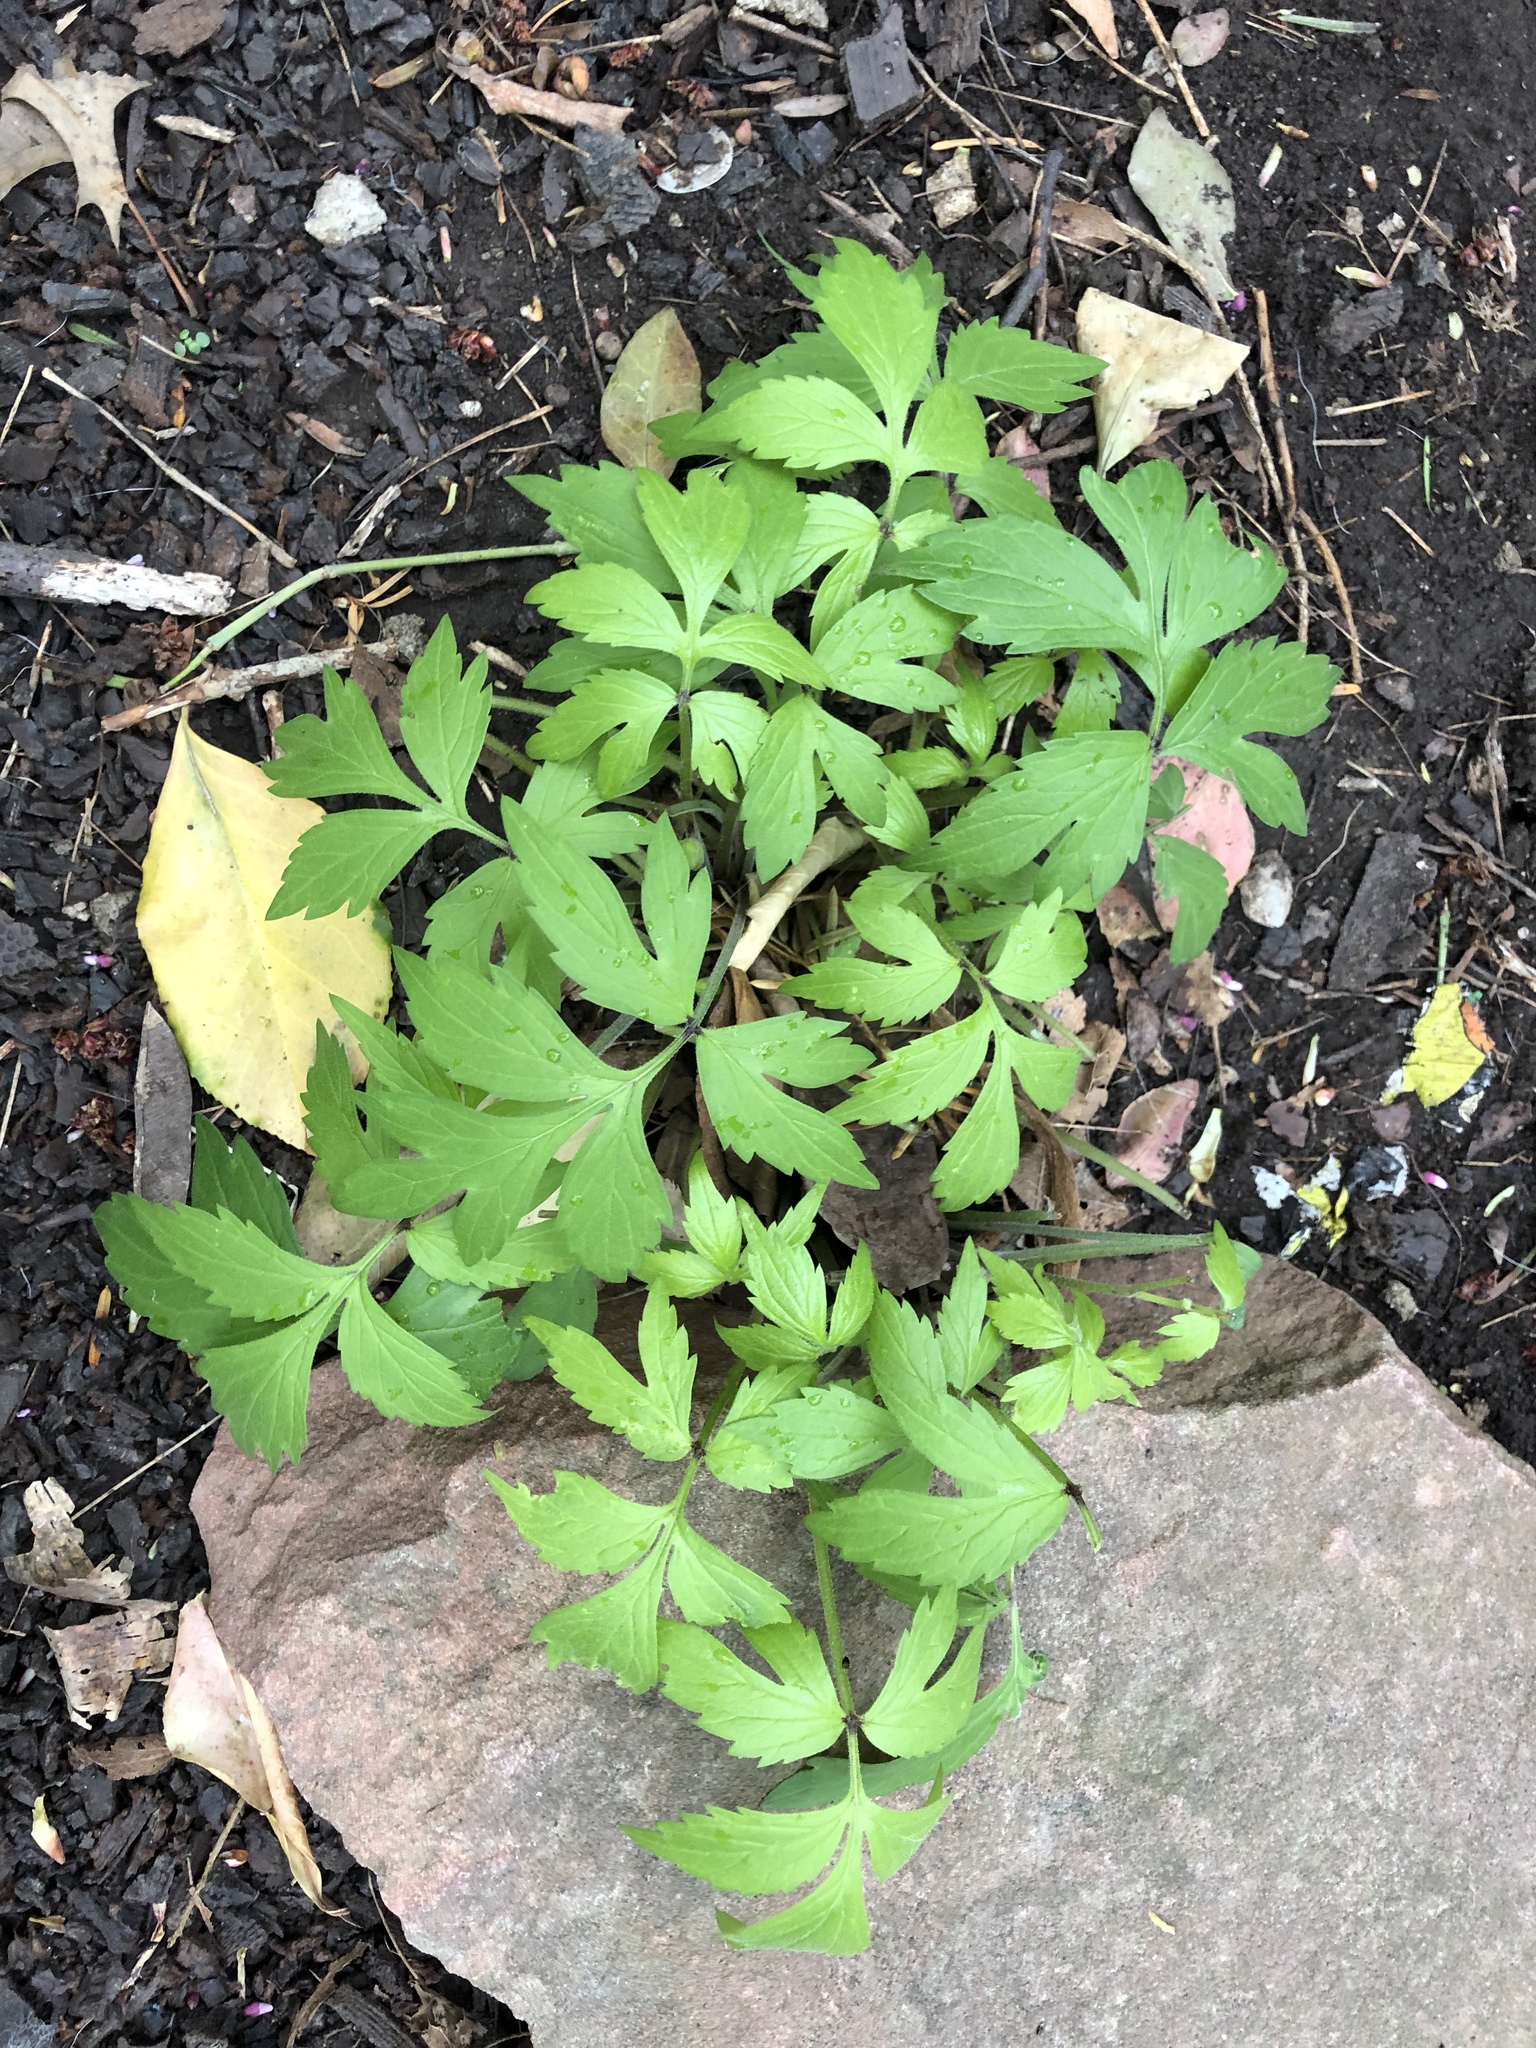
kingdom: Plantae
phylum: Tracheophyta
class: Magnoliopsida
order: Boraginales
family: Hydrophyllaceae
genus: Hydrophyllum
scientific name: Hydrophyllum virginianum
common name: Virginia waterleaf
